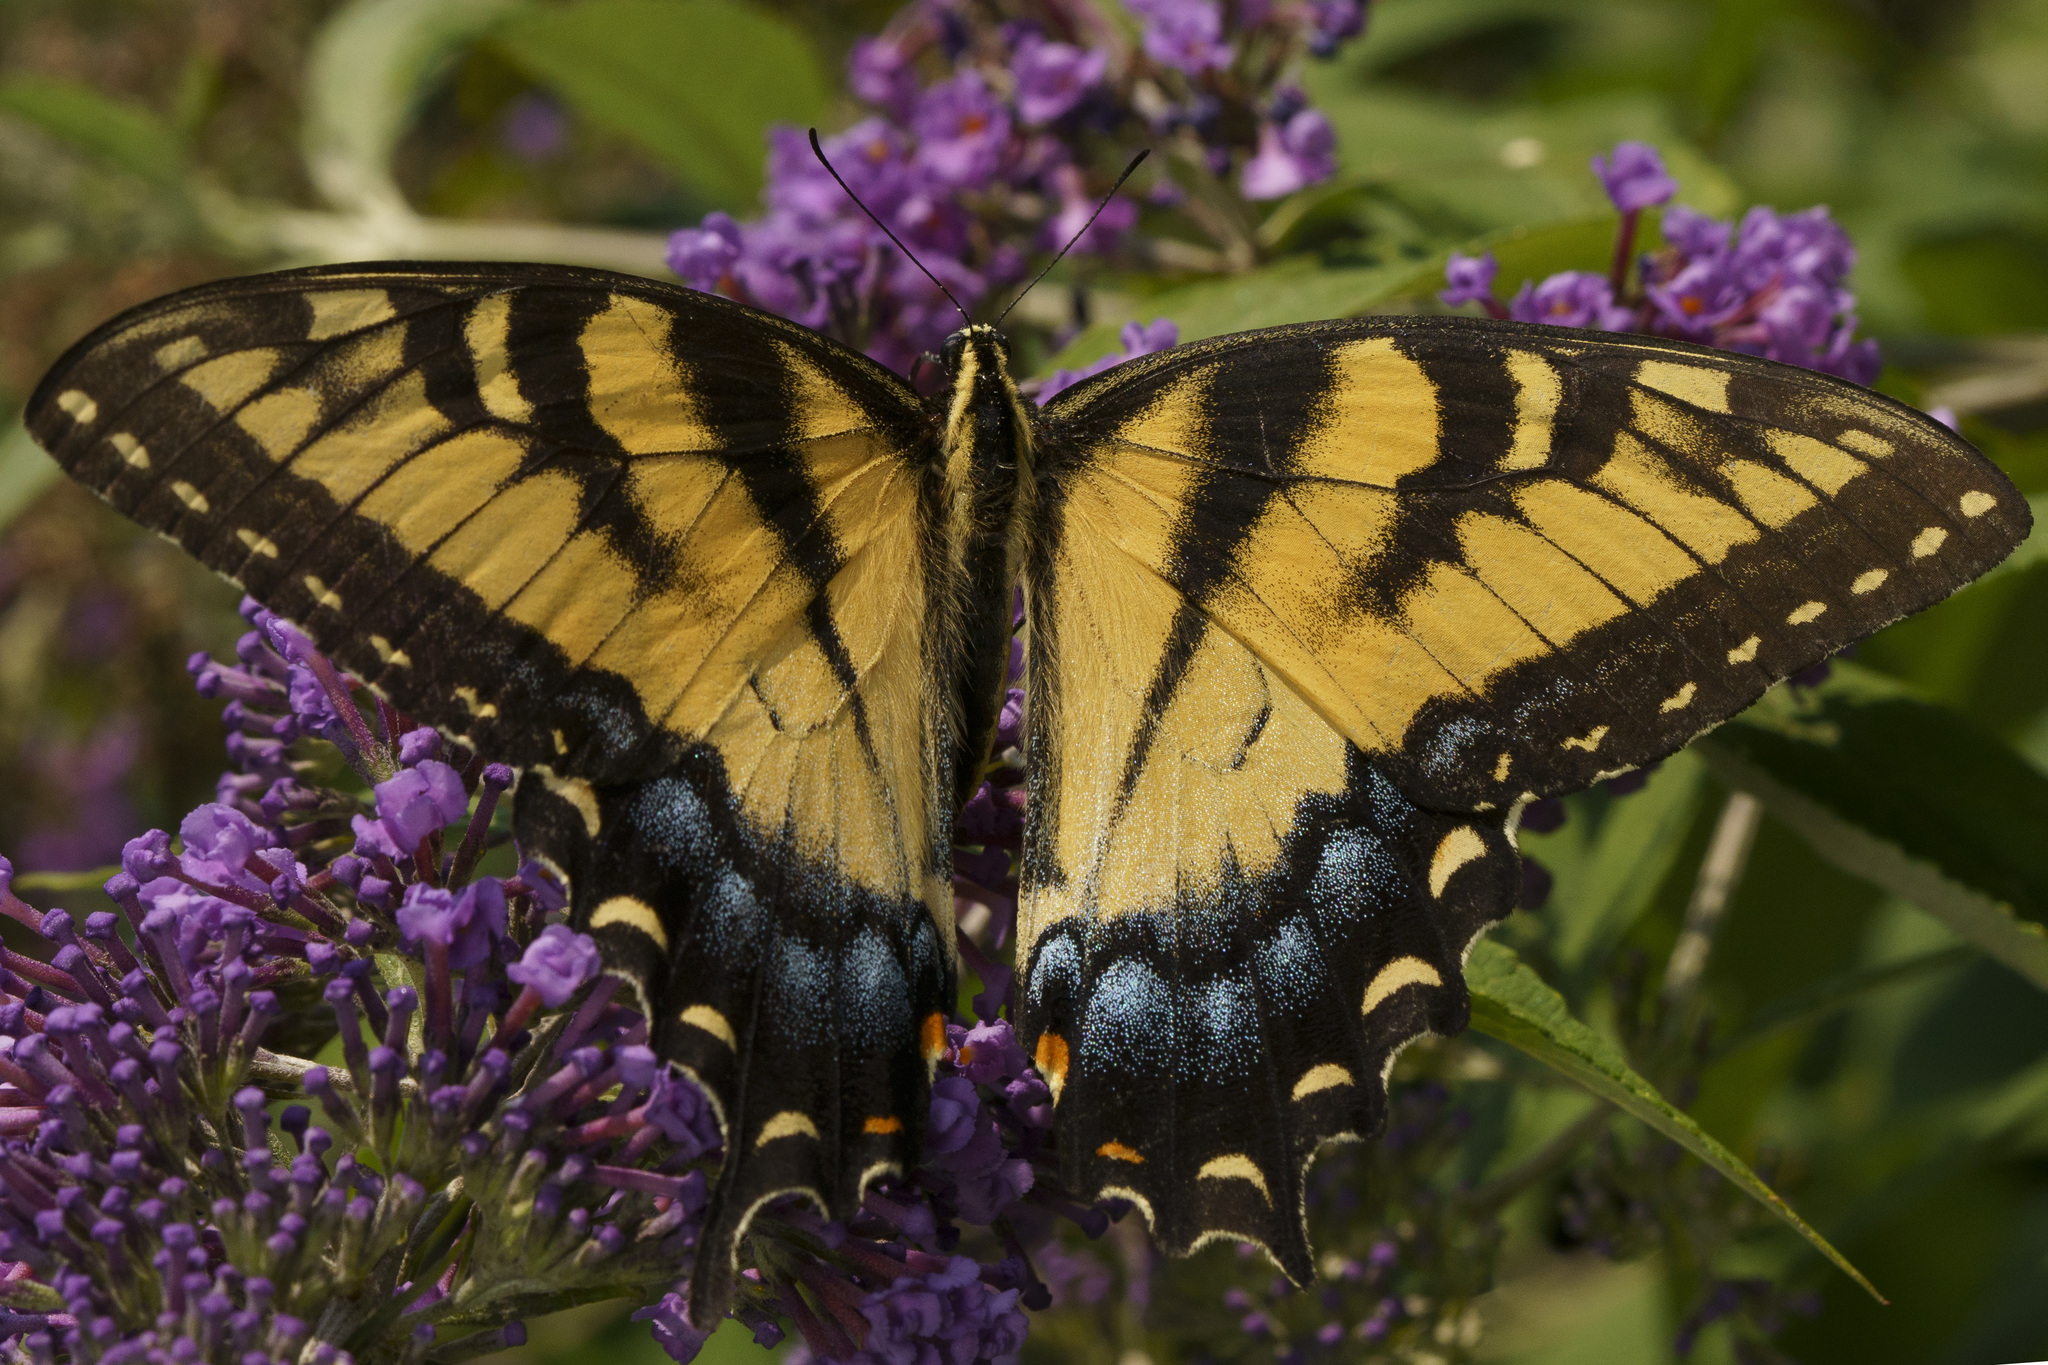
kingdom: Animalia
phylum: Arthropoda
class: Insecta
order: Lepidoptera
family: Papilionidae
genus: Papilio
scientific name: Papilio glaucus
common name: Tiger swallowtail
